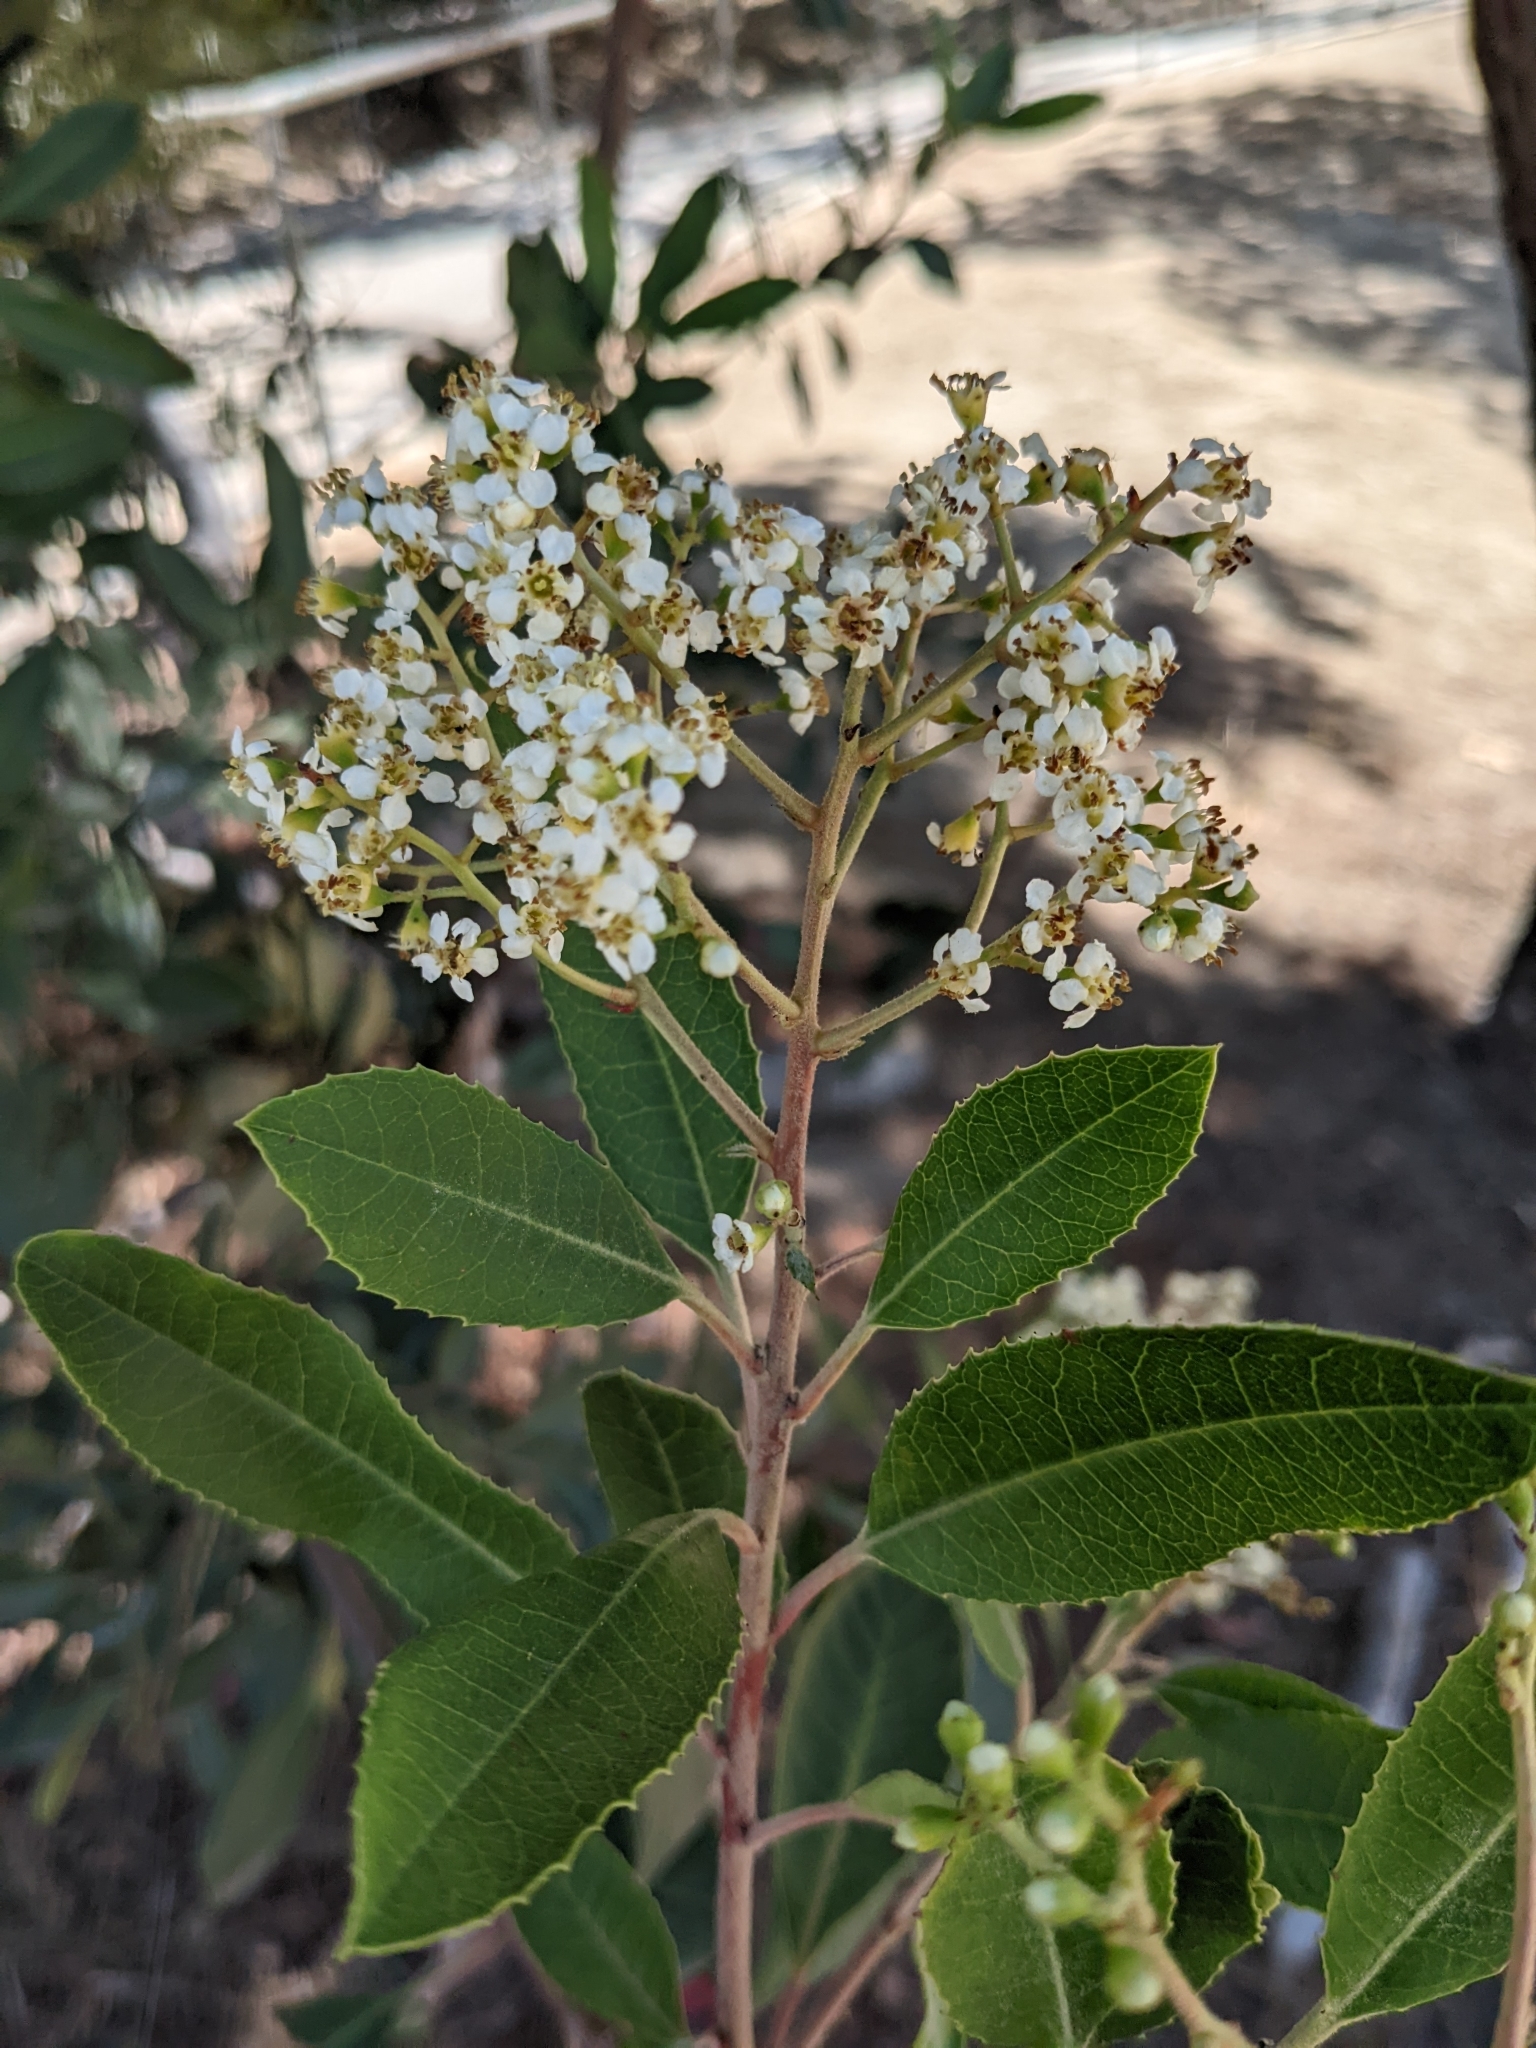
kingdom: Plantae
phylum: Tracheophyta
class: Magnoliopsida
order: Rosales
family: Rosaceae
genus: Heteromeles
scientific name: Heteromeles arbutifolia
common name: California-holly
